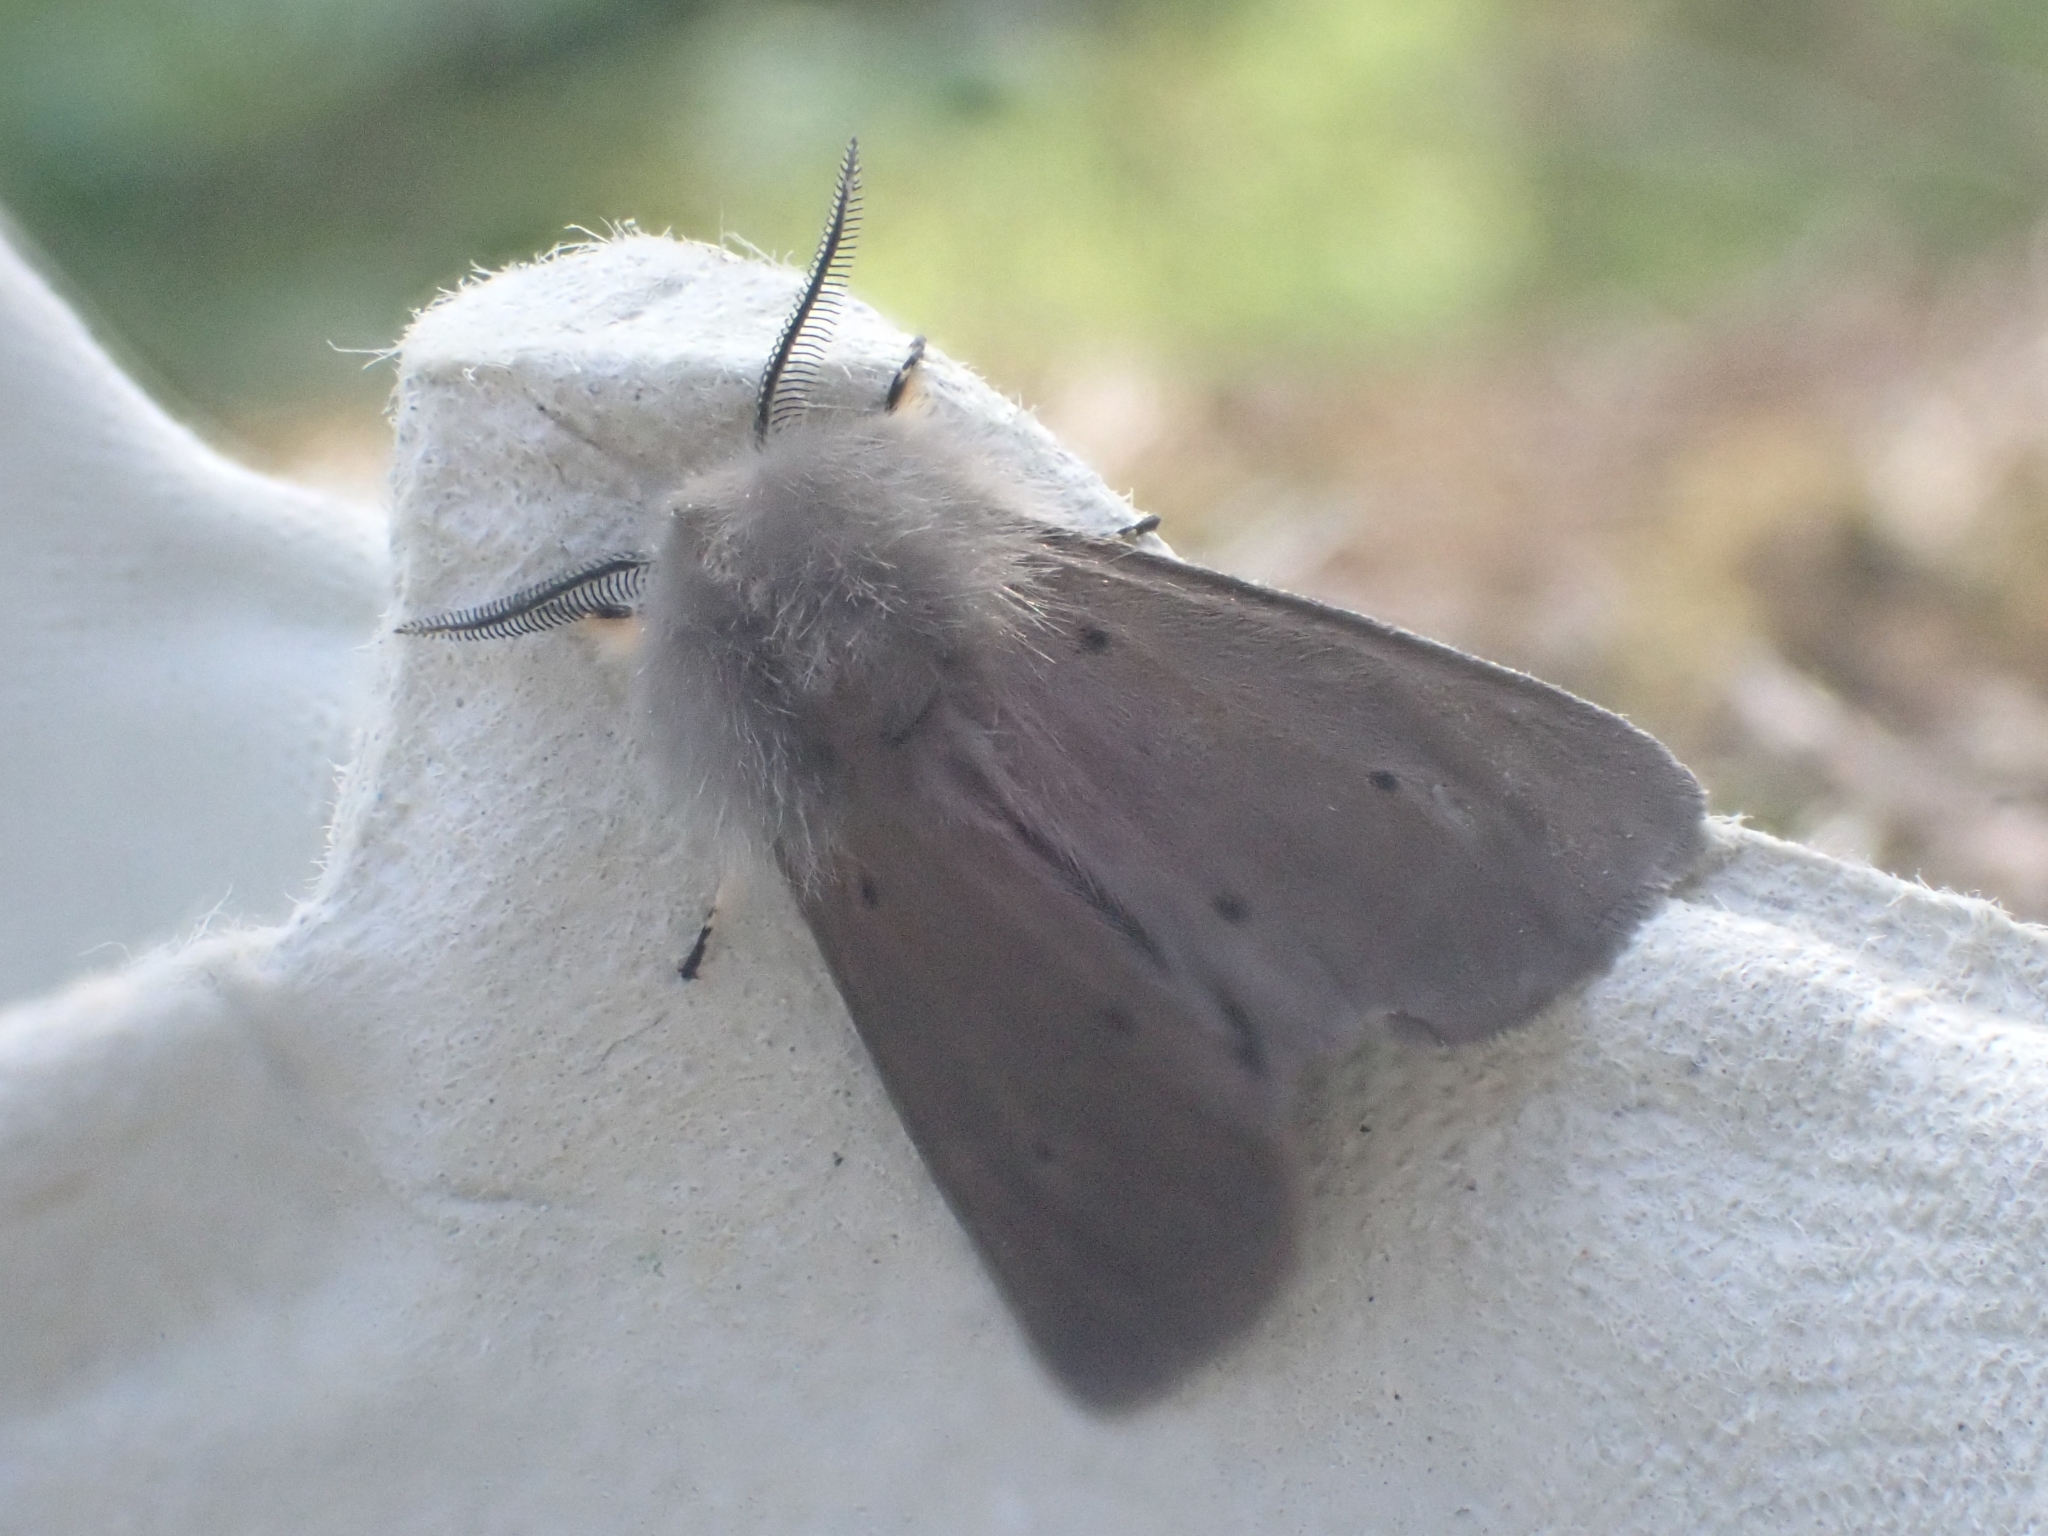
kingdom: Animalia
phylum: Arthropoda
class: Insecta
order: Lepidoptera
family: Erebidae
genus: Diaphora
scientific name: Diaphora mendica
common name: Muslin moth
